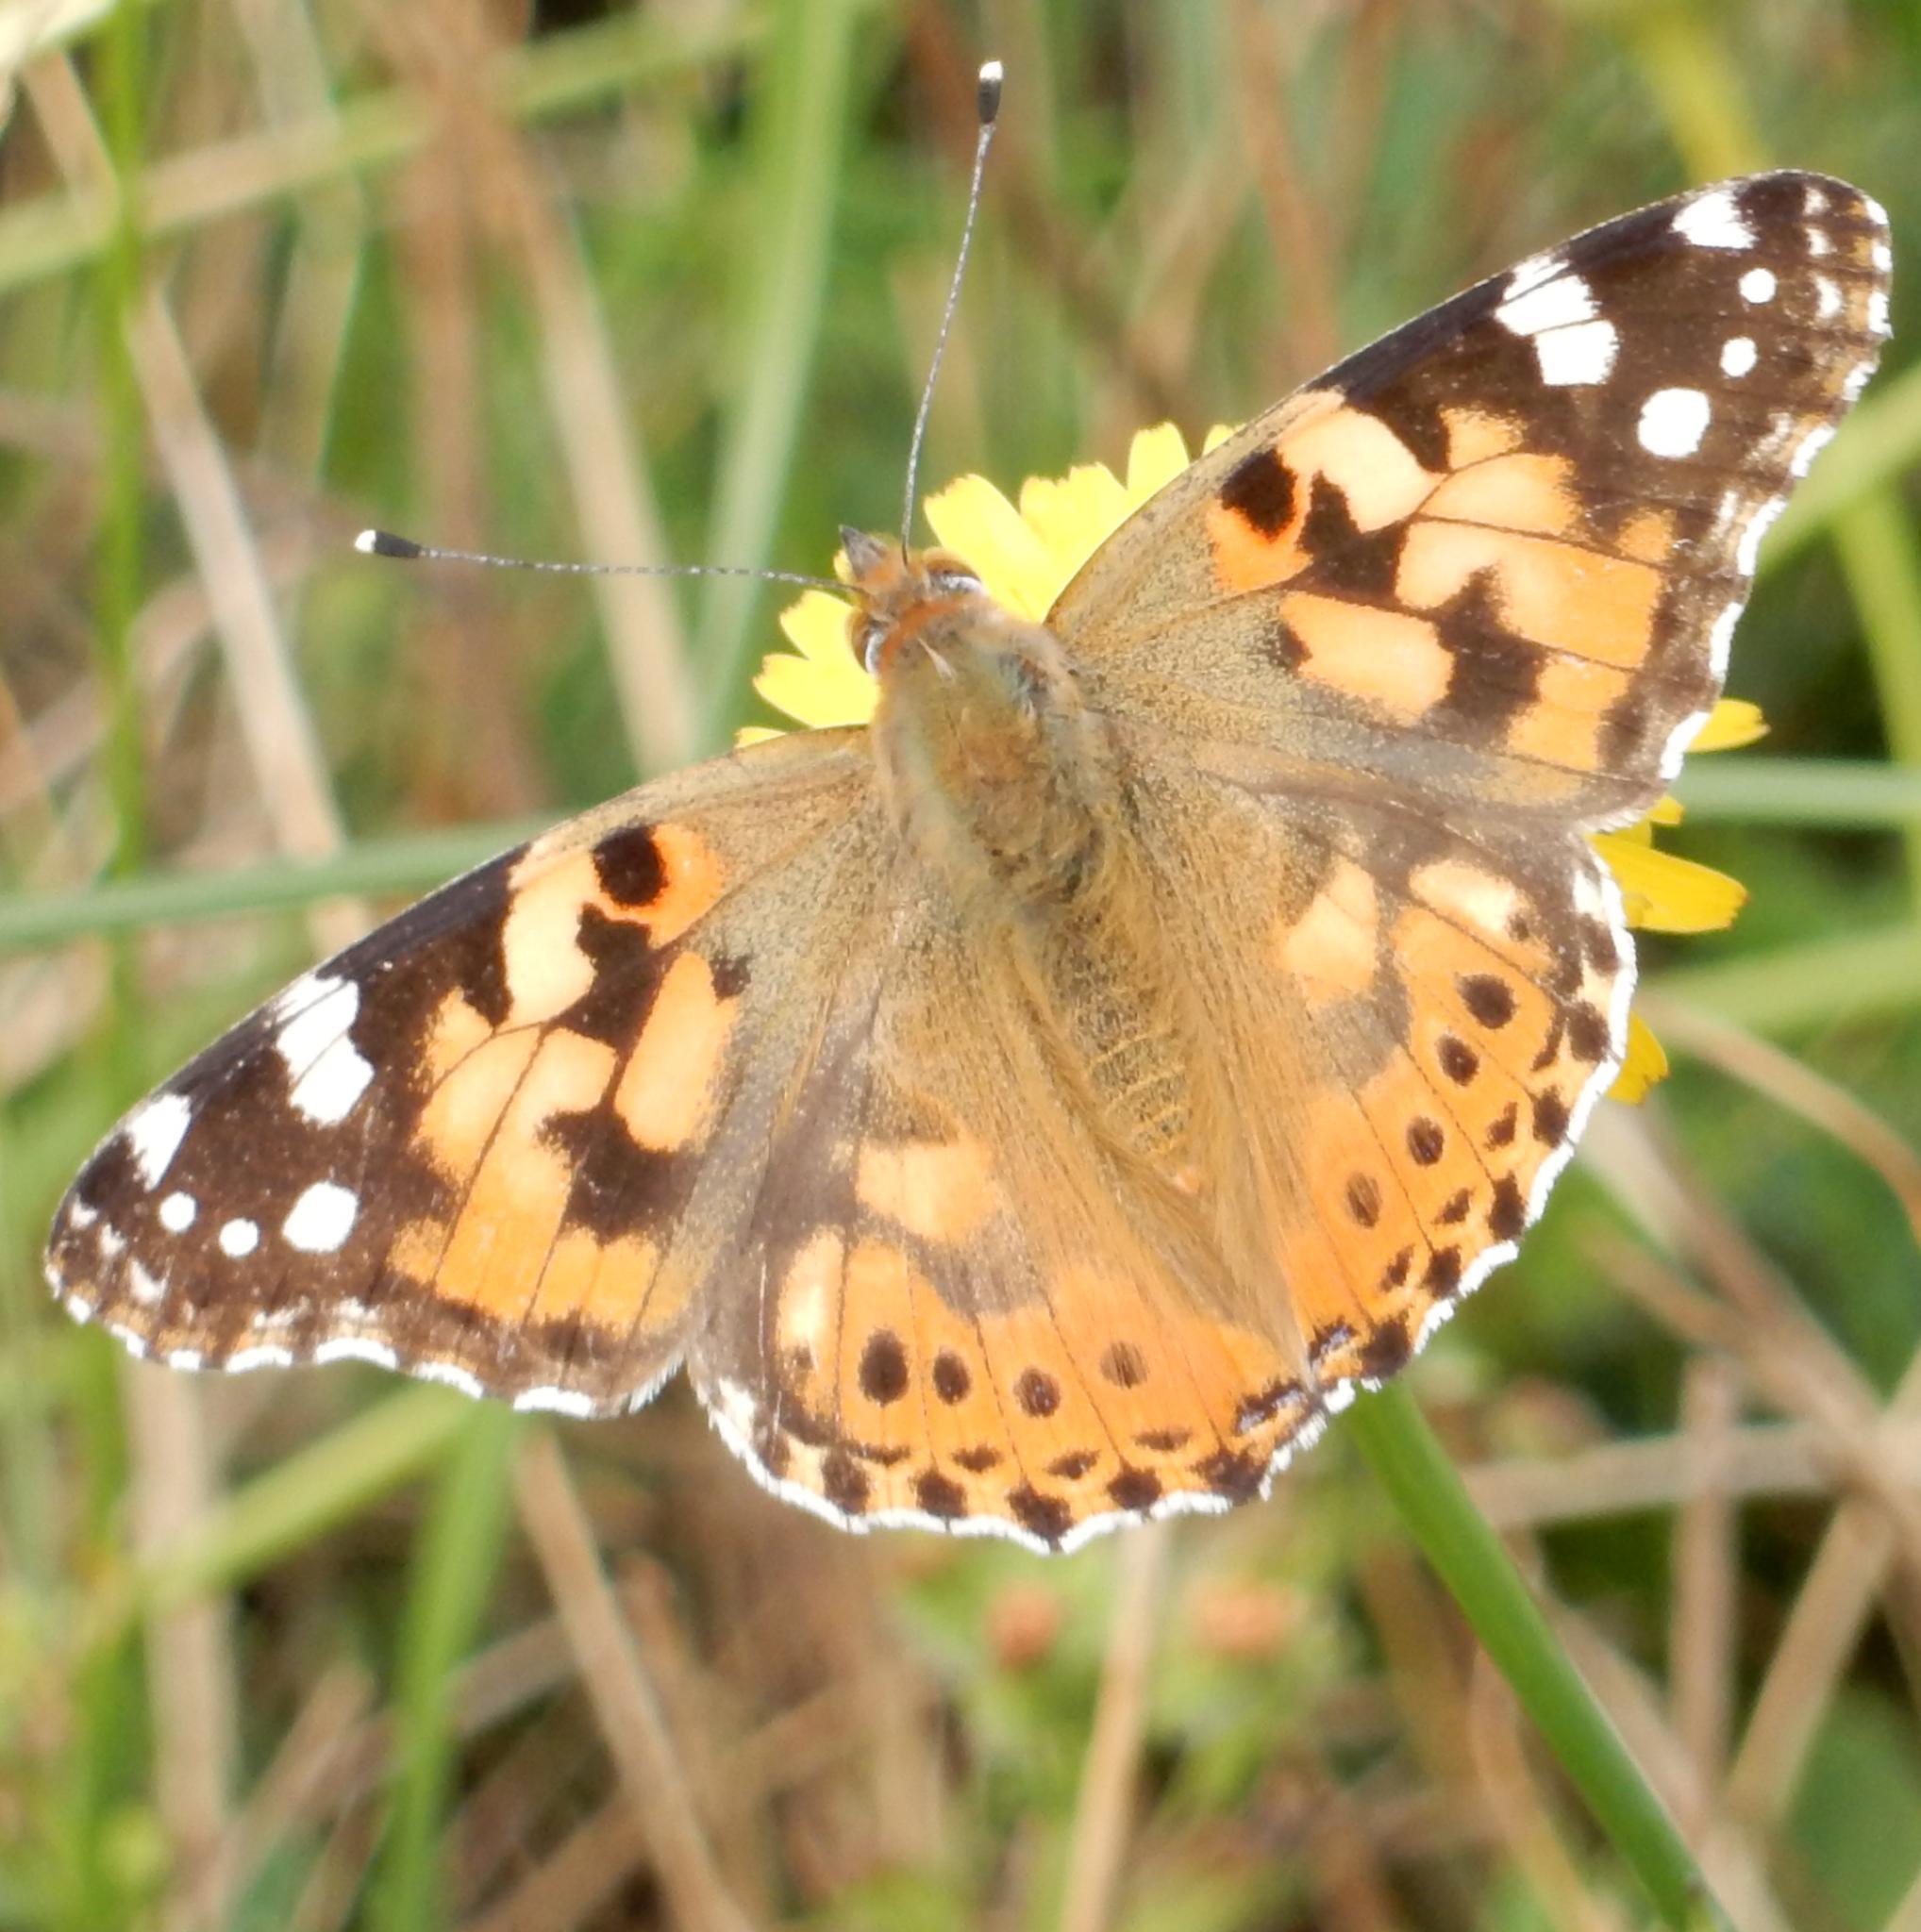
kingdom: Animalia
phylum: Arthropoda
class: Insecta
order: Lepidoptera
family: Nymphalidae
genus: Vanessa
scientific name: Vanessa cardui
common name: Painted lady
